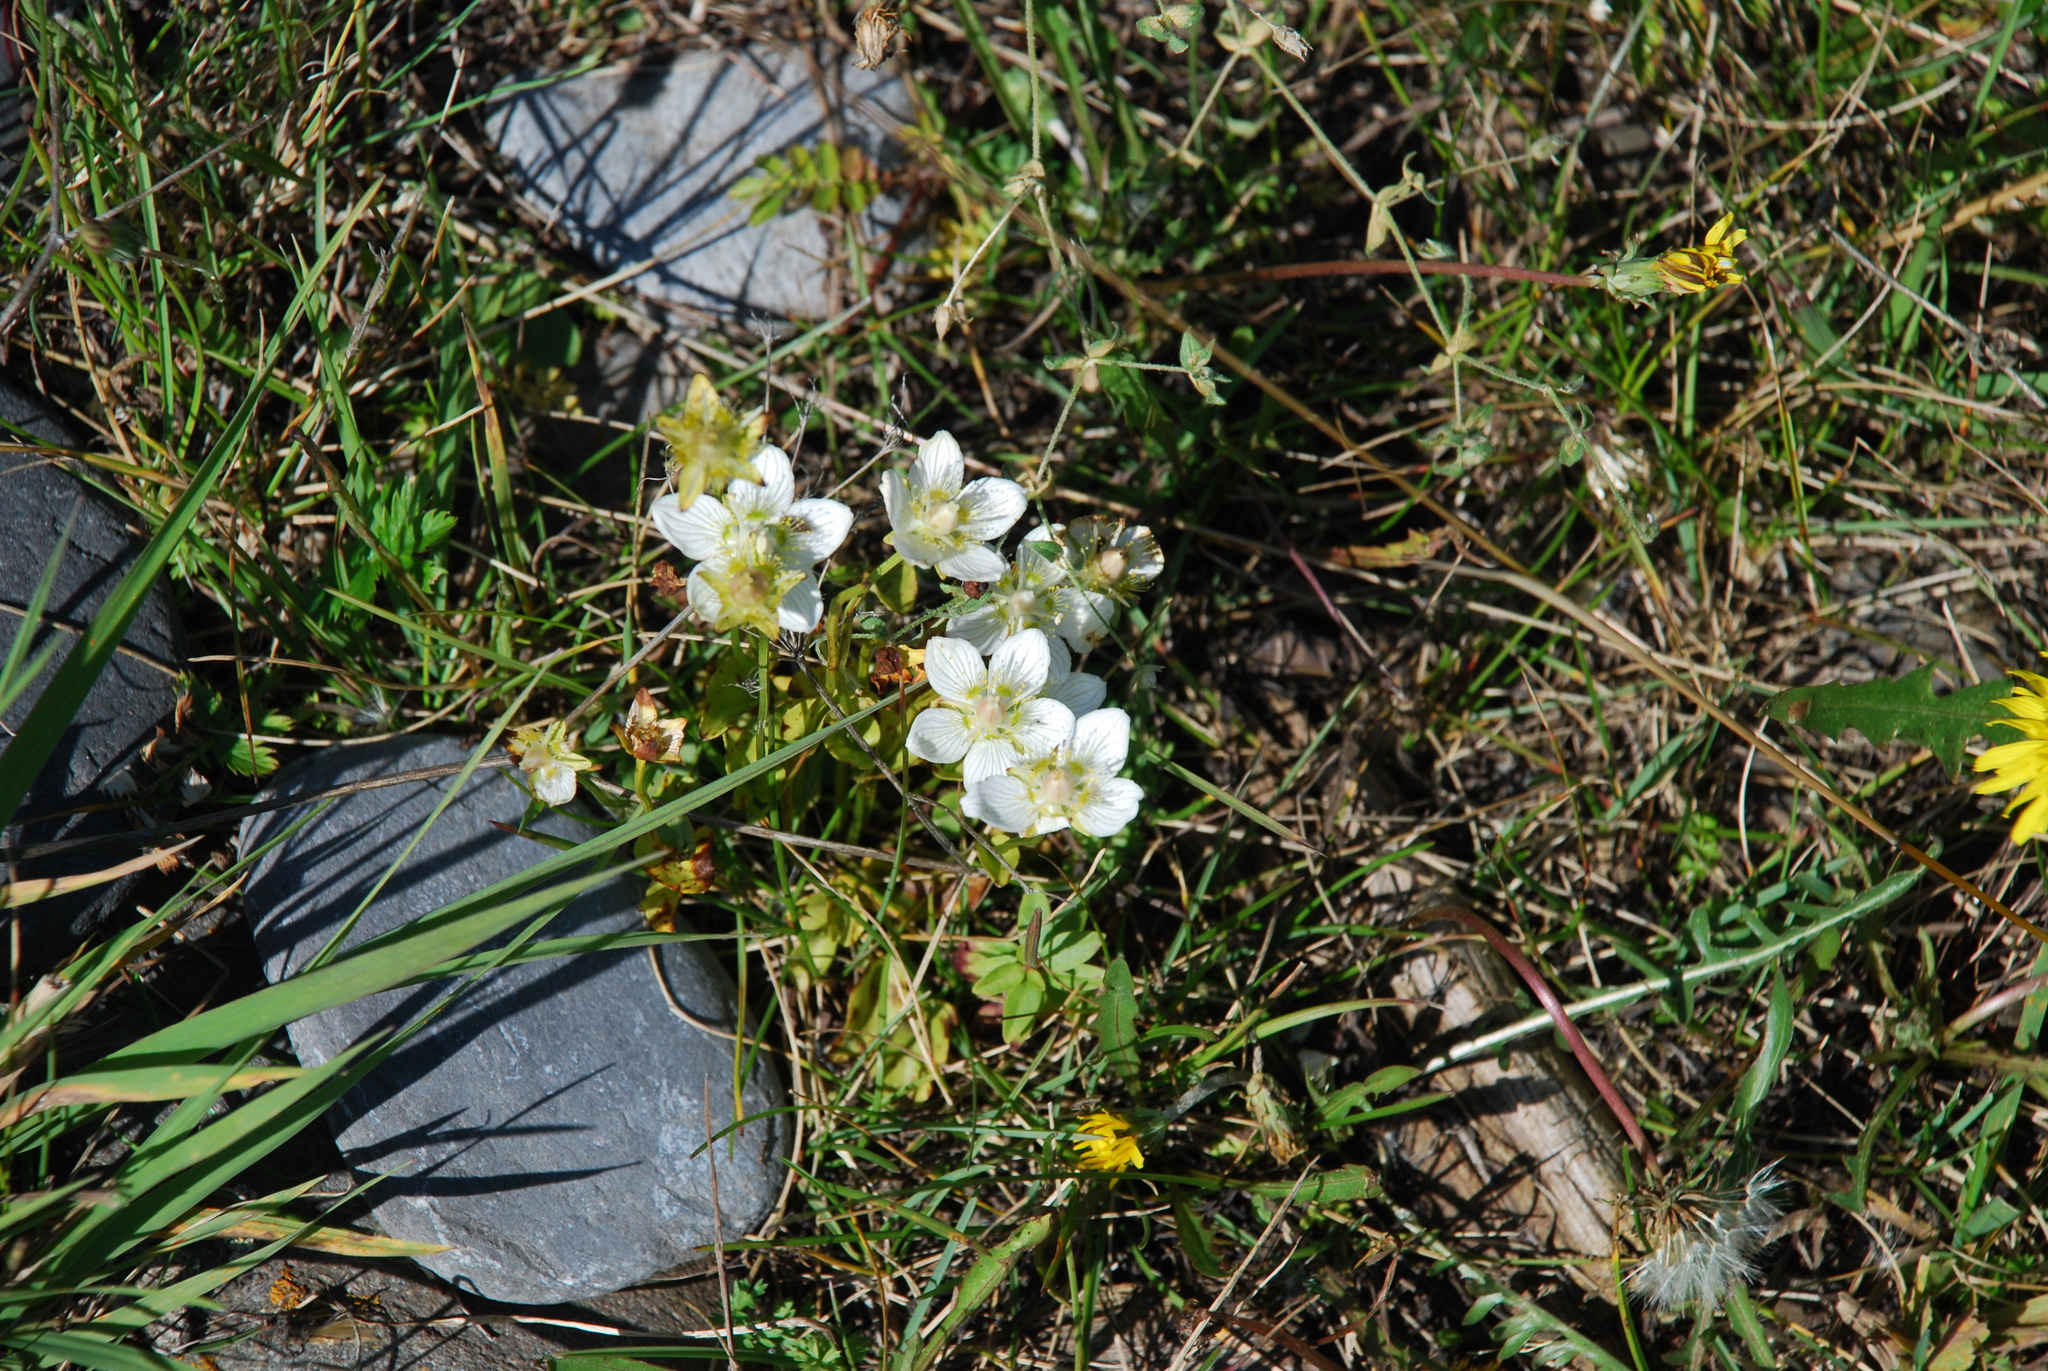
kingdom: Plantae
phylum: Tracheophyta
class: Magnoliopsida
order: Celastrales
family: Parnassiaceae
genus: Parnassia
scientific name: Parnassia palustris
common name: Grass-of-parnassus
